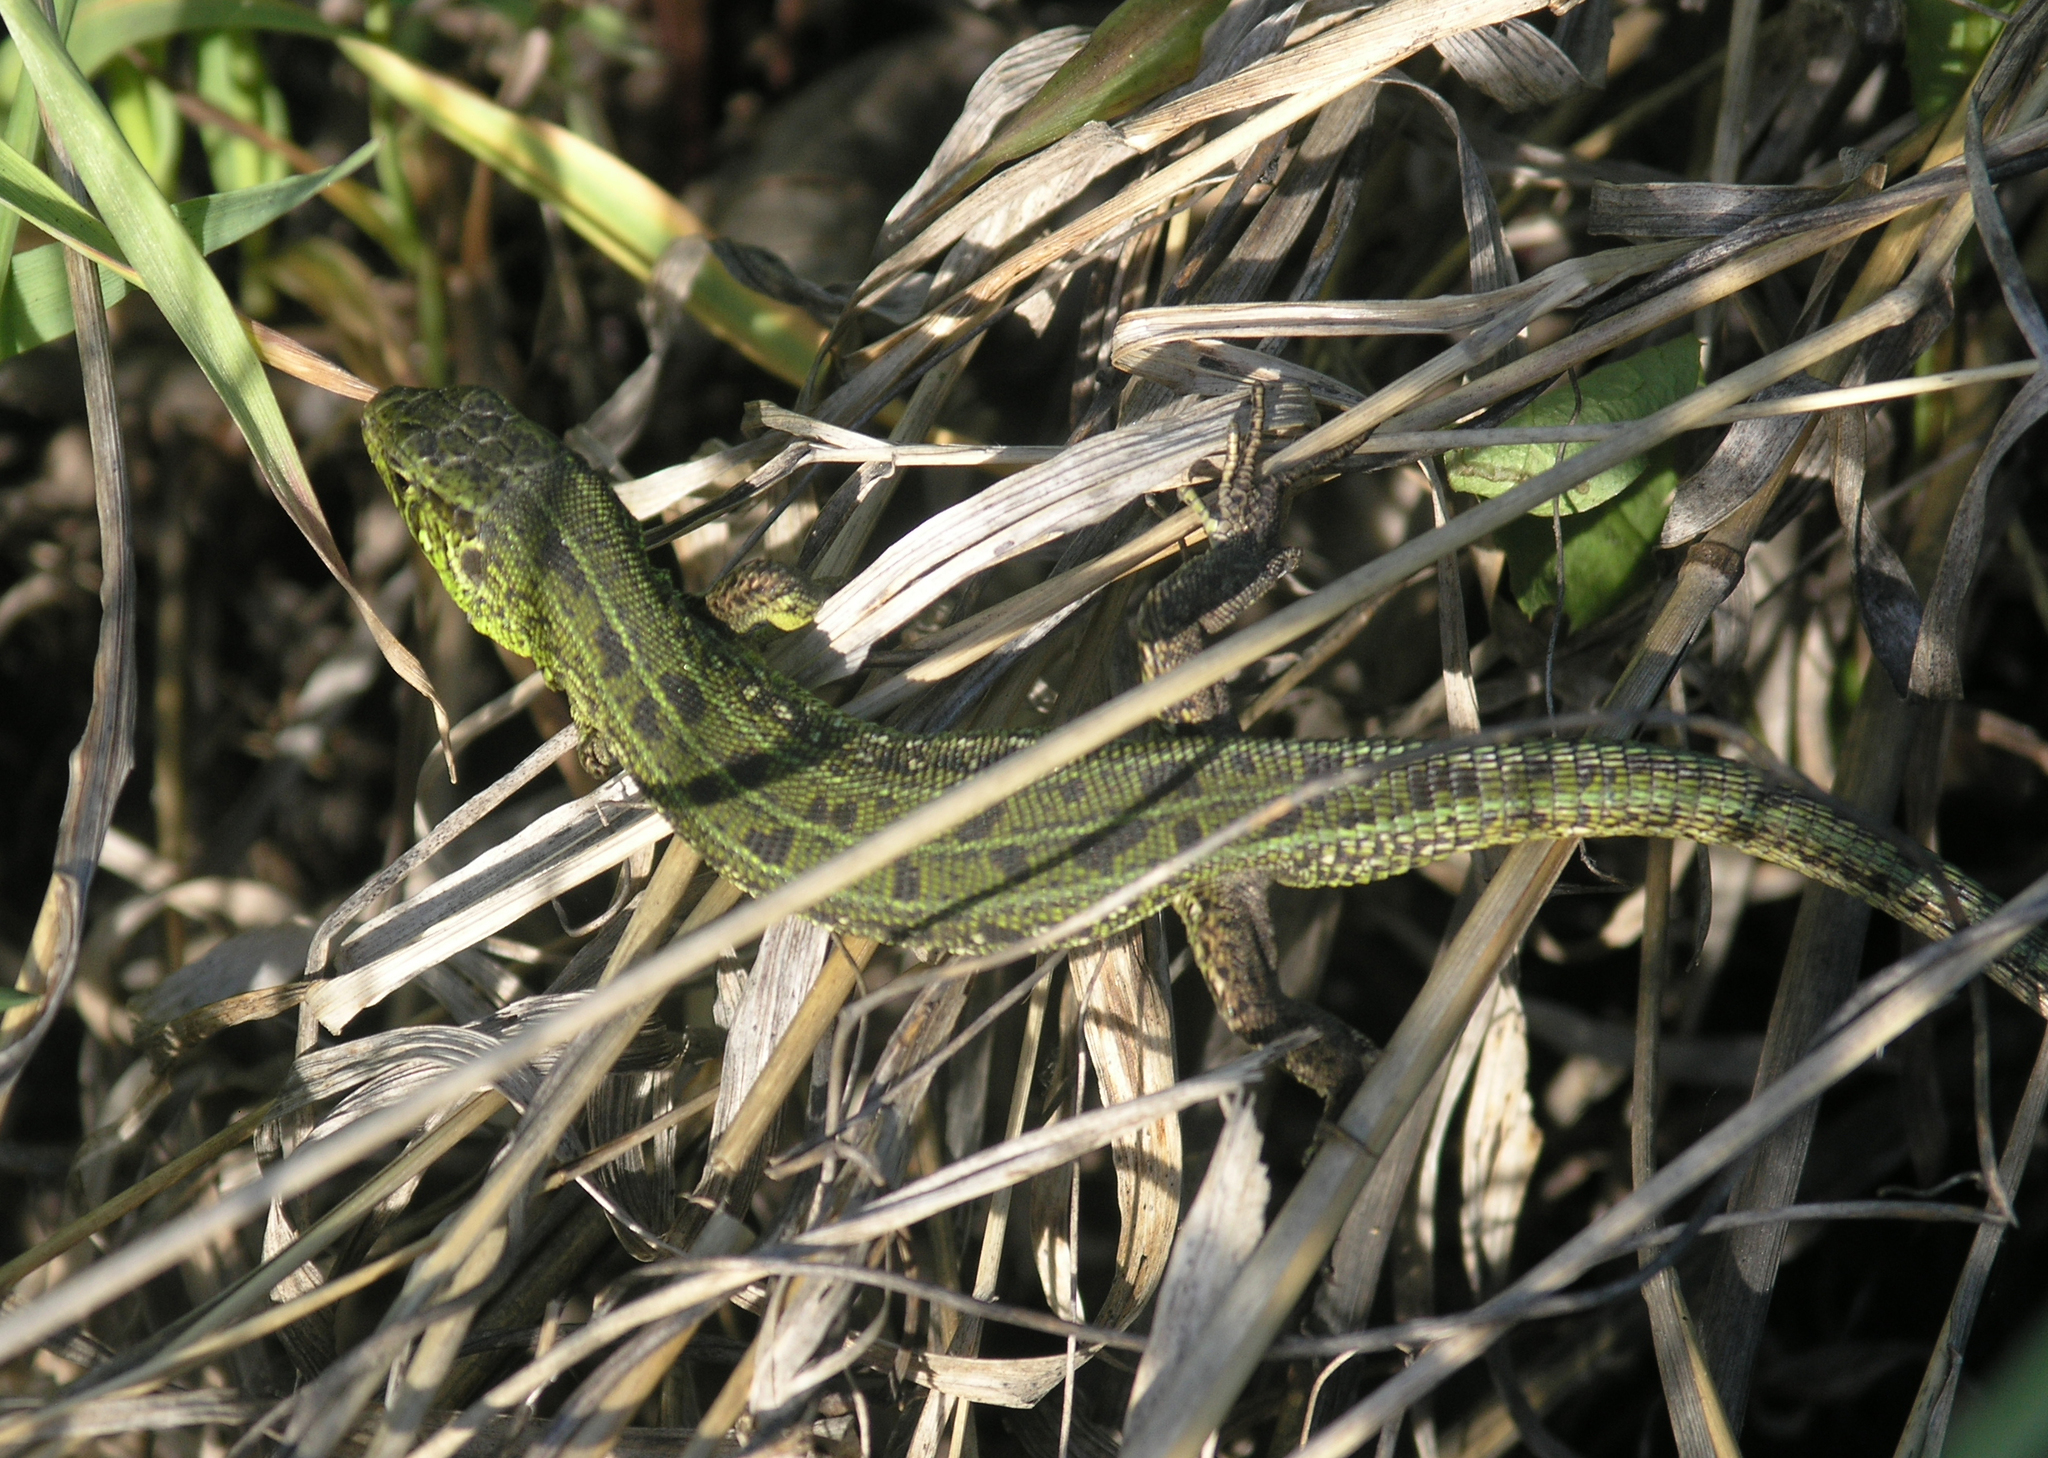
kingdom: Animalia
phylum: Chordata
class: Squamata
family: Lacertidae
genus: Lacerta
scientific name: Lacerta agilis
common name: Sand lizard
